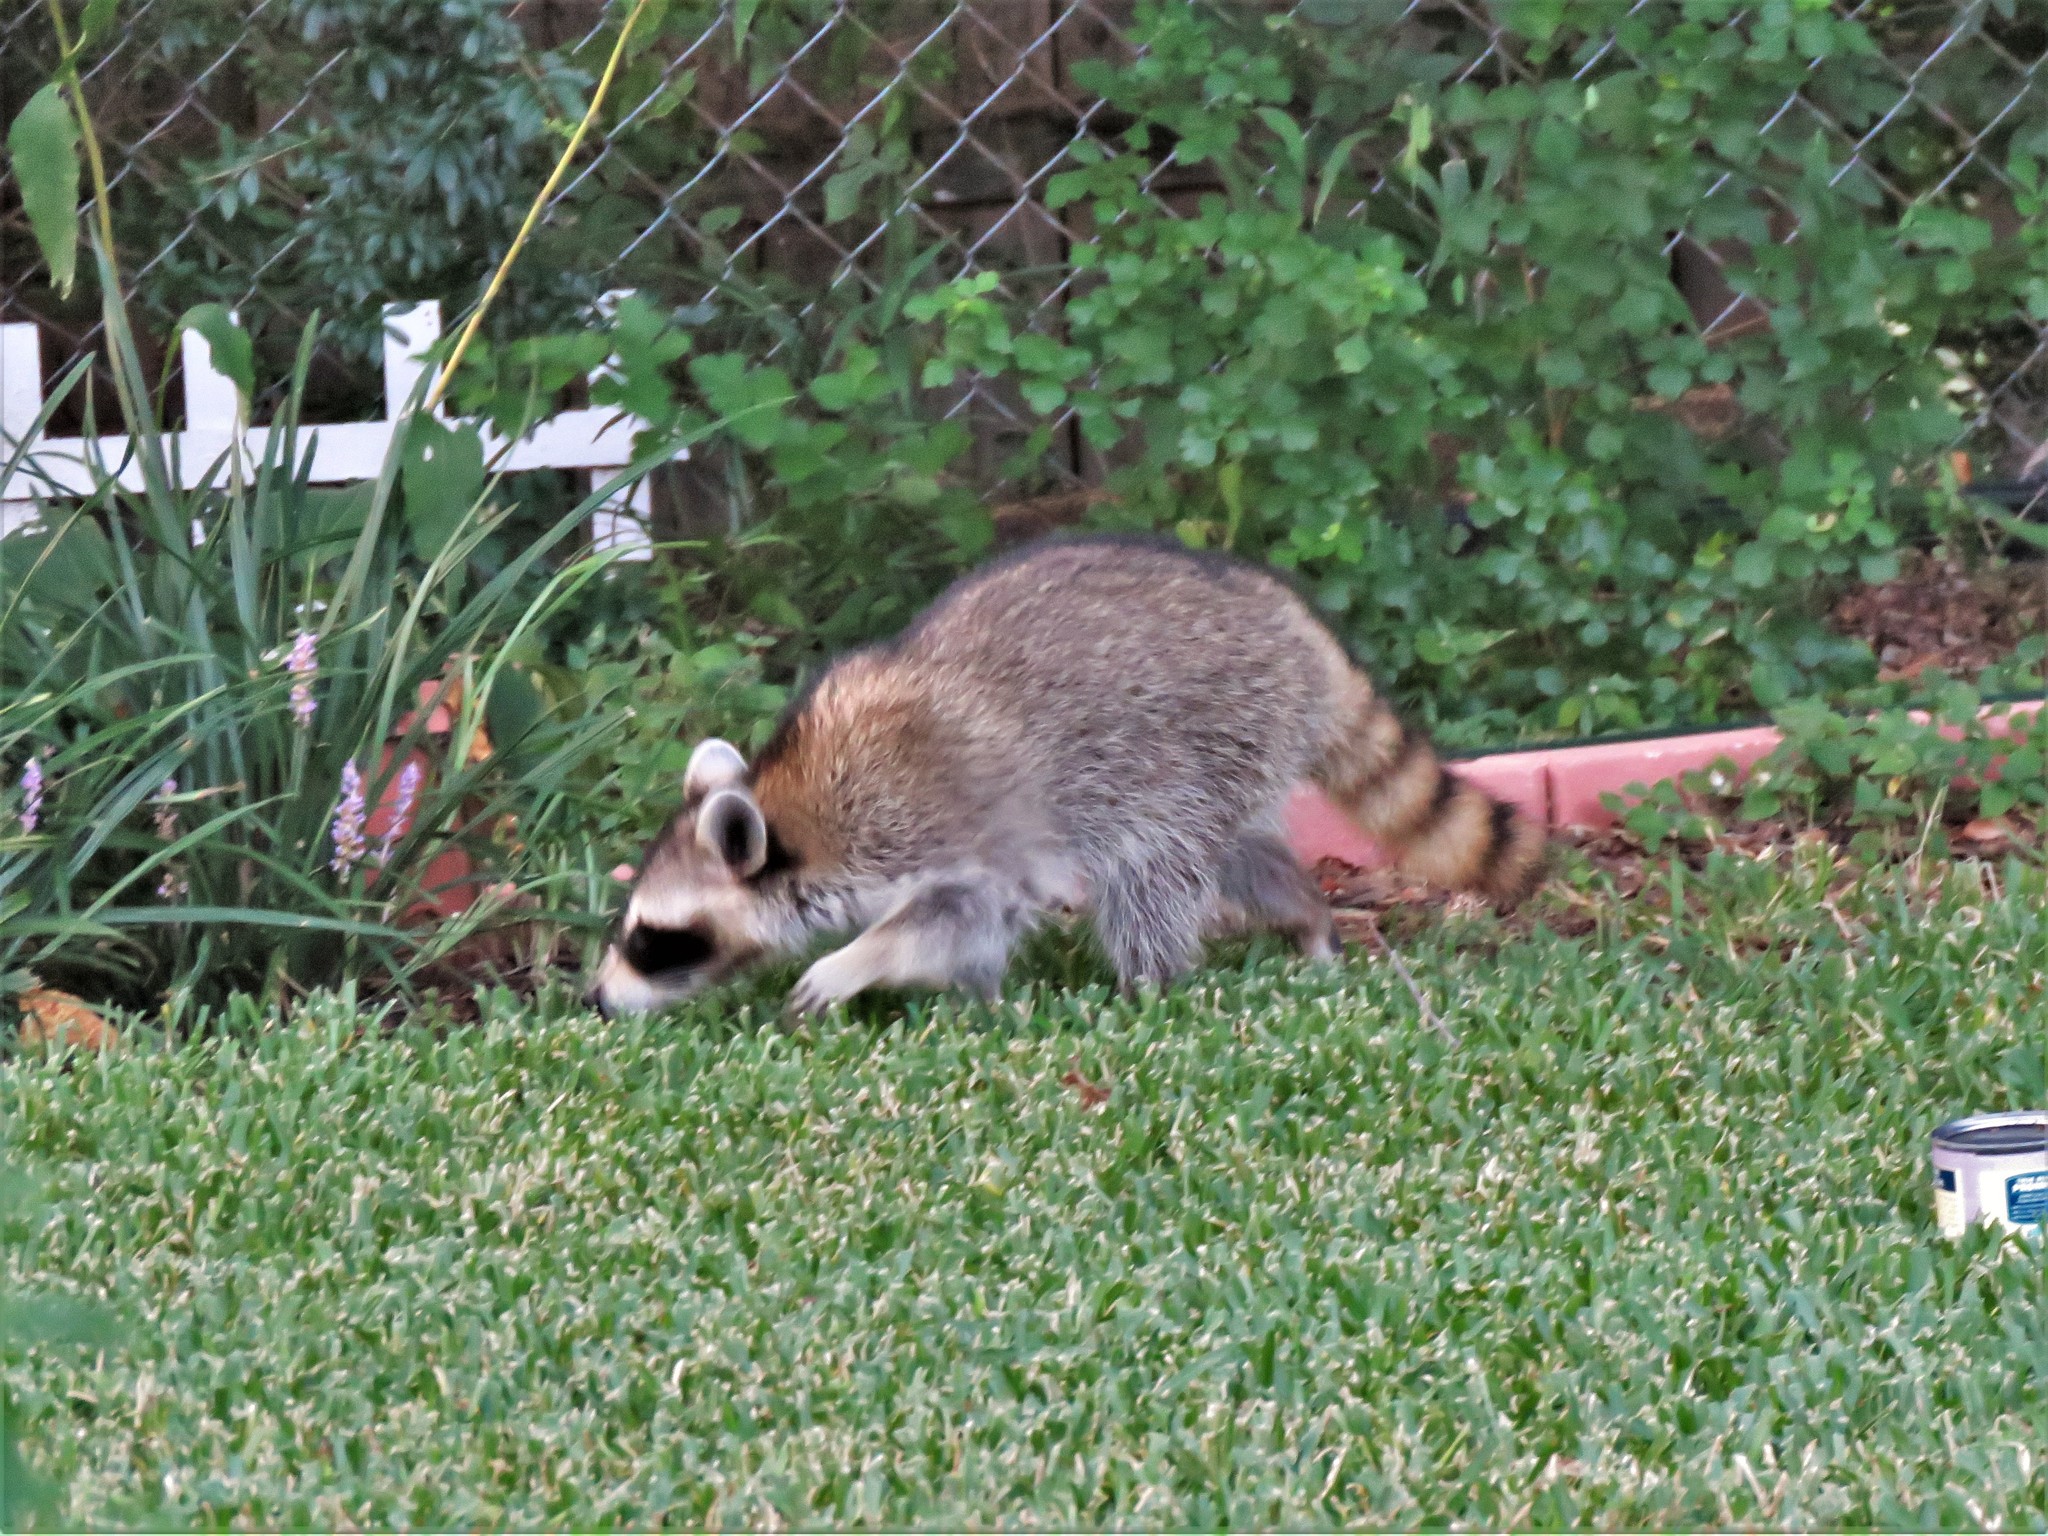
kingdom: Animalia
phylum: Chordata
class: Mammalia
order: Carnivora
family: Procyonidae
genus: Procyon
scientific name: Procyon lotor
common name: Raccoon
